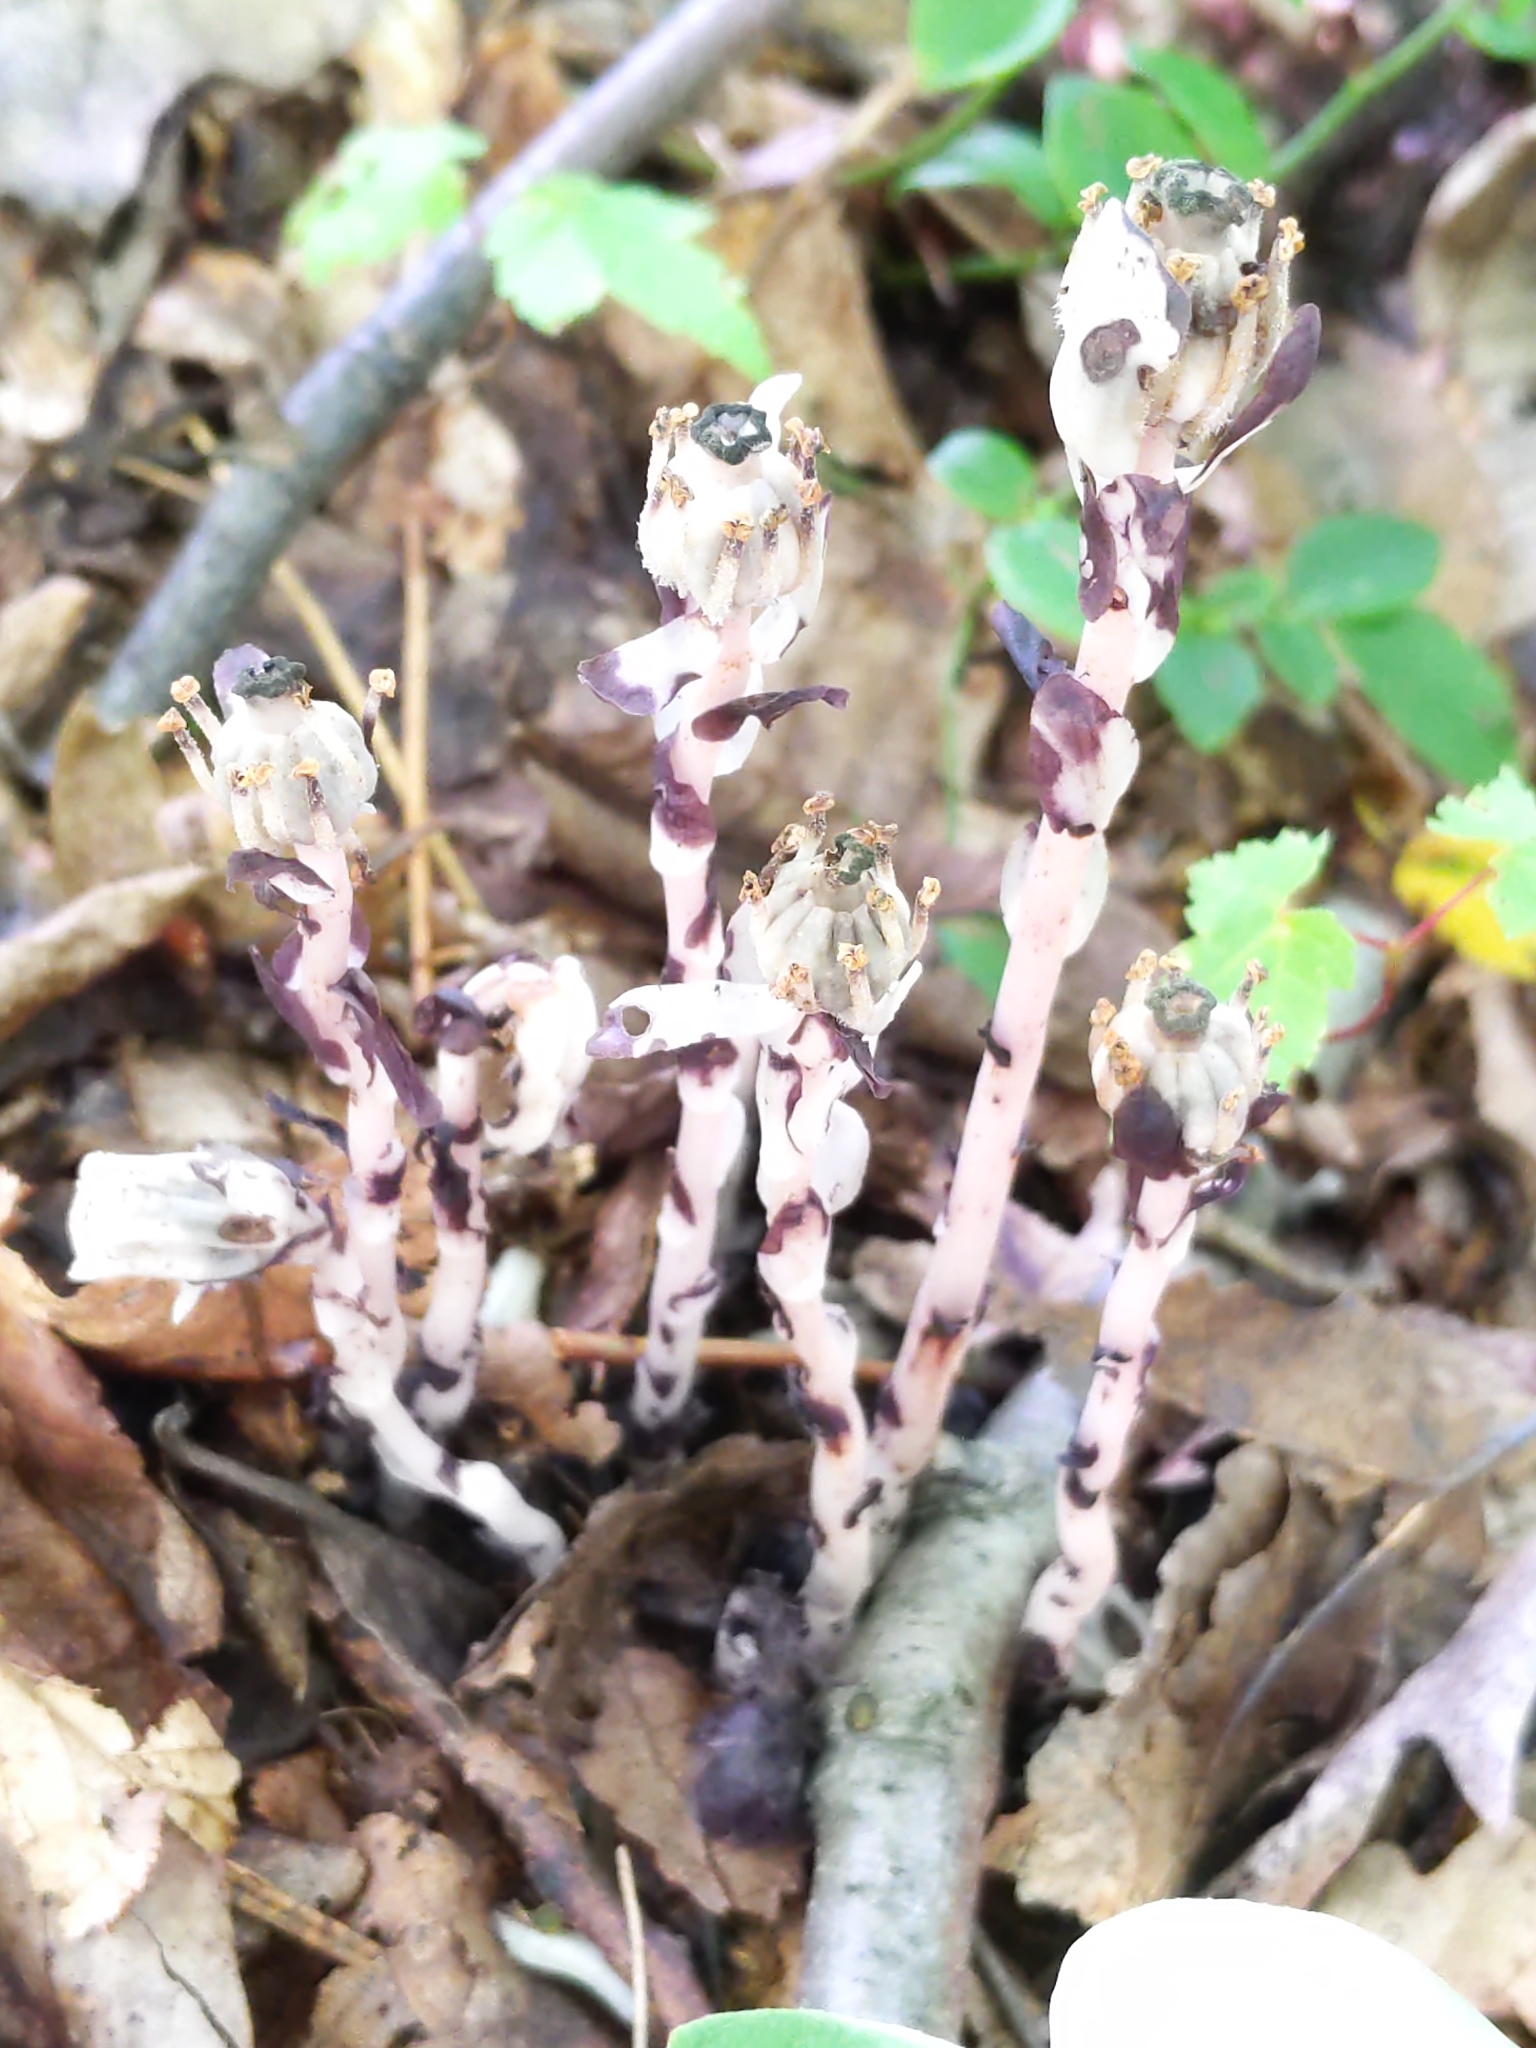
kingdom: Plantae
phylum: Tracheophyta
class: Magnoliopsida
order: Ericales
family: Ericaceae
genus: Monotropa
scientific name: Monotropa uniflora
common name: Convulsion root
